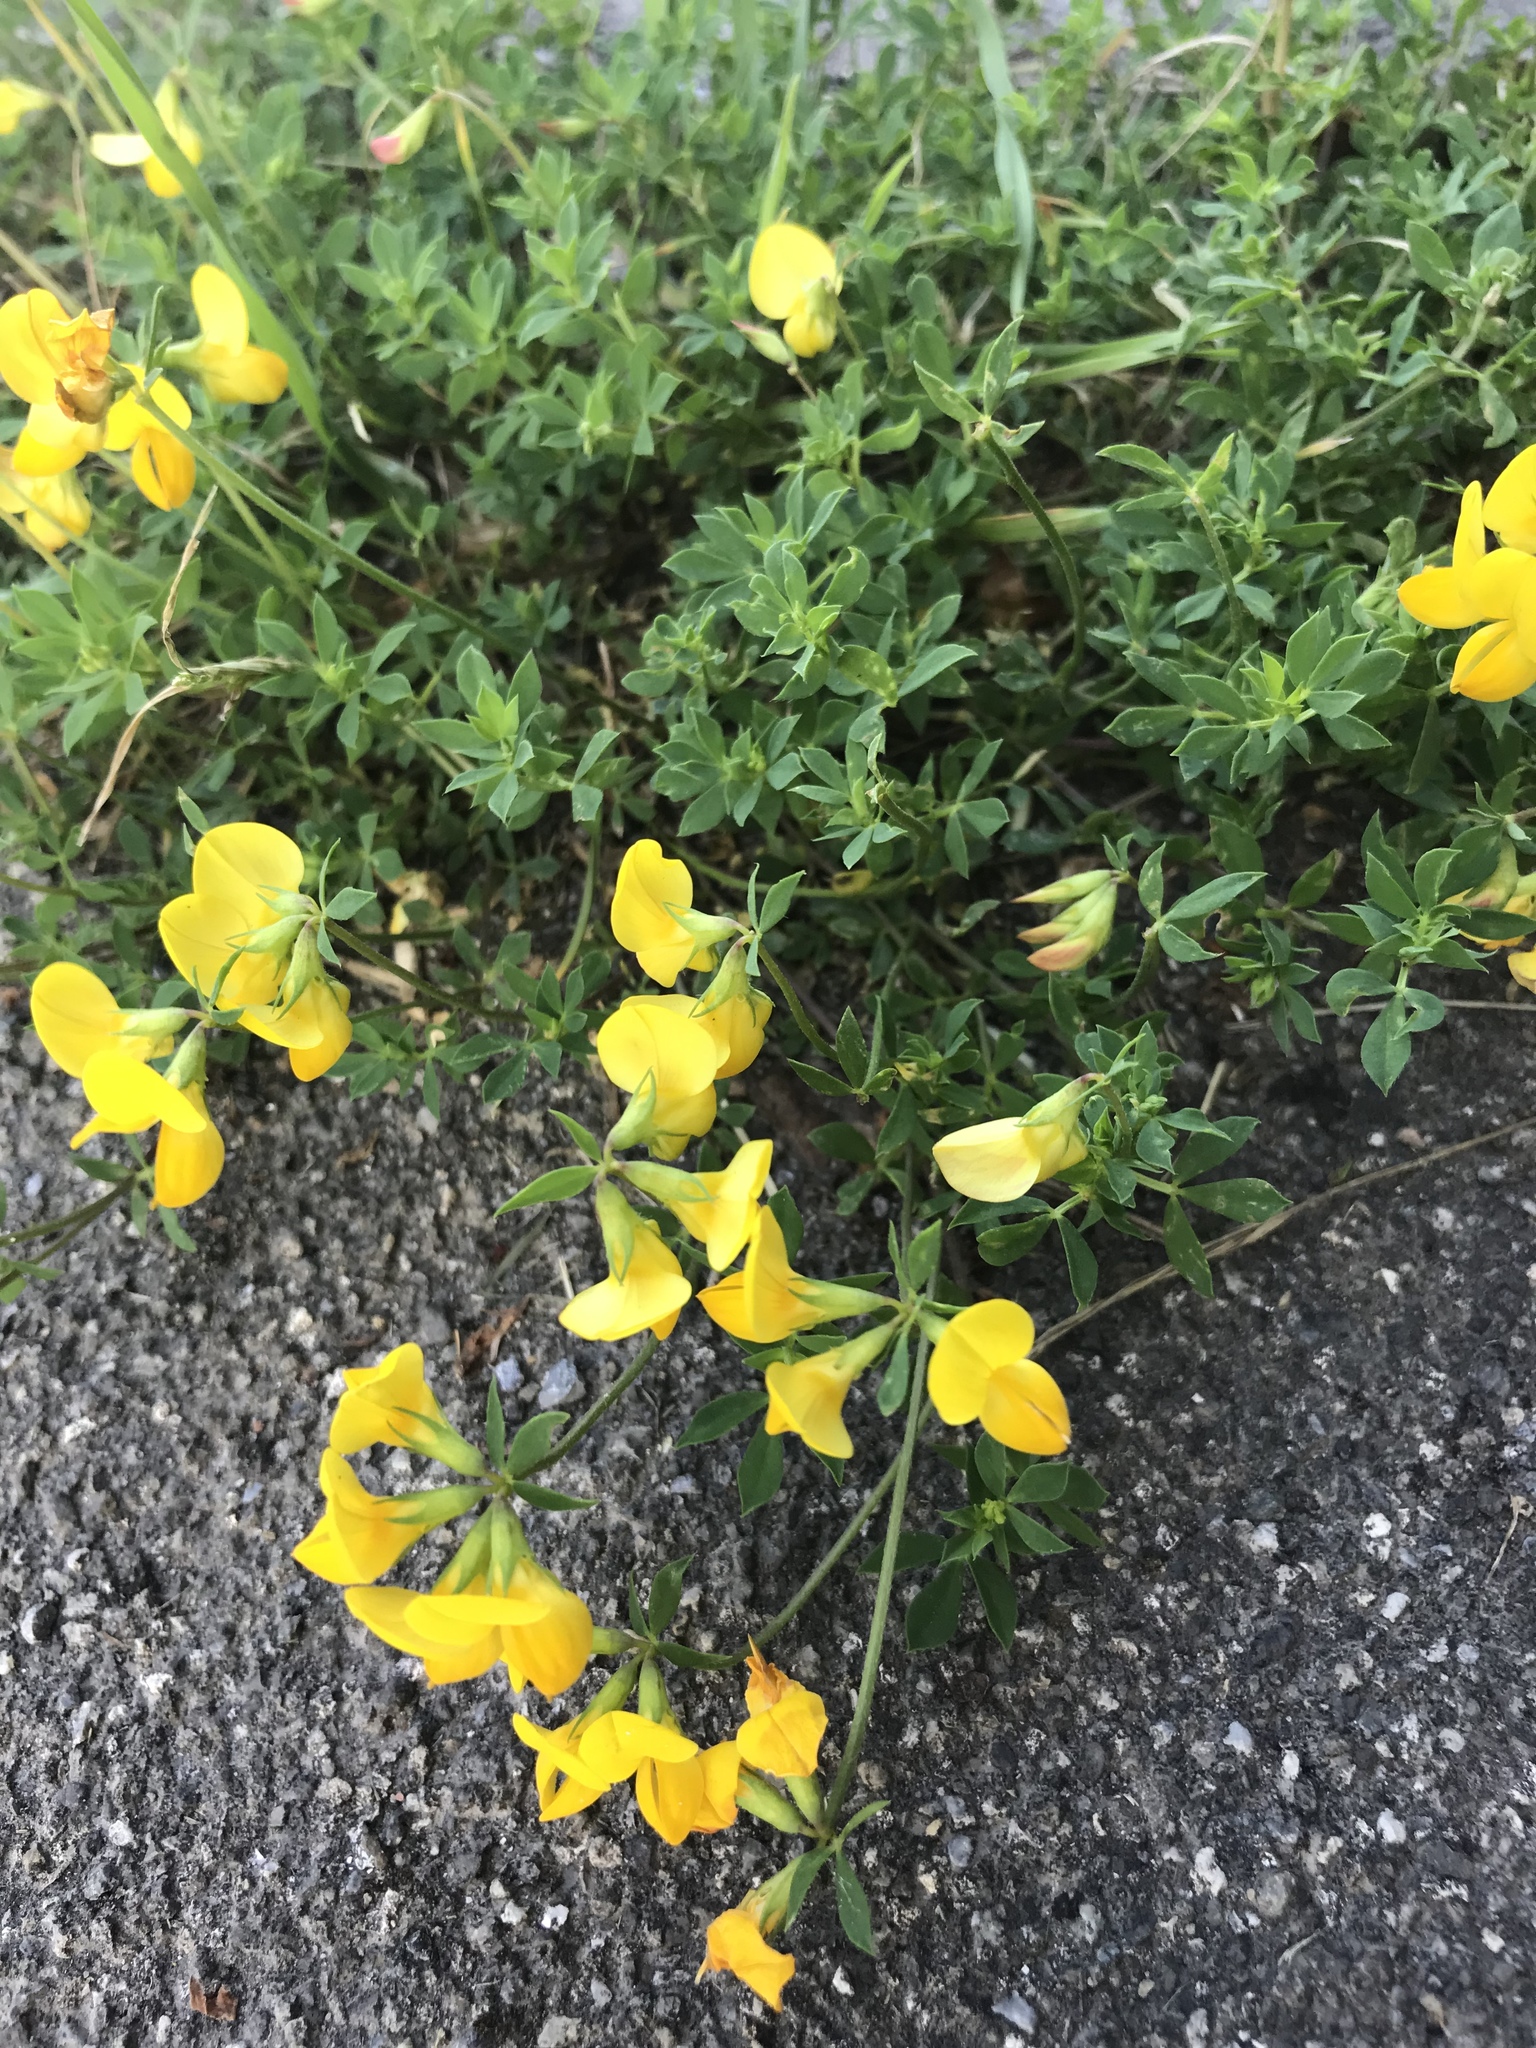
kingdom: Plantae
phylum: Tracheophyta
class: Magnoliopsida
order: Fabales
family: Fabaceae
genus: Lotus
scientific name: Lotus corniculatus
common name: Common bird's-foot-trefoil
